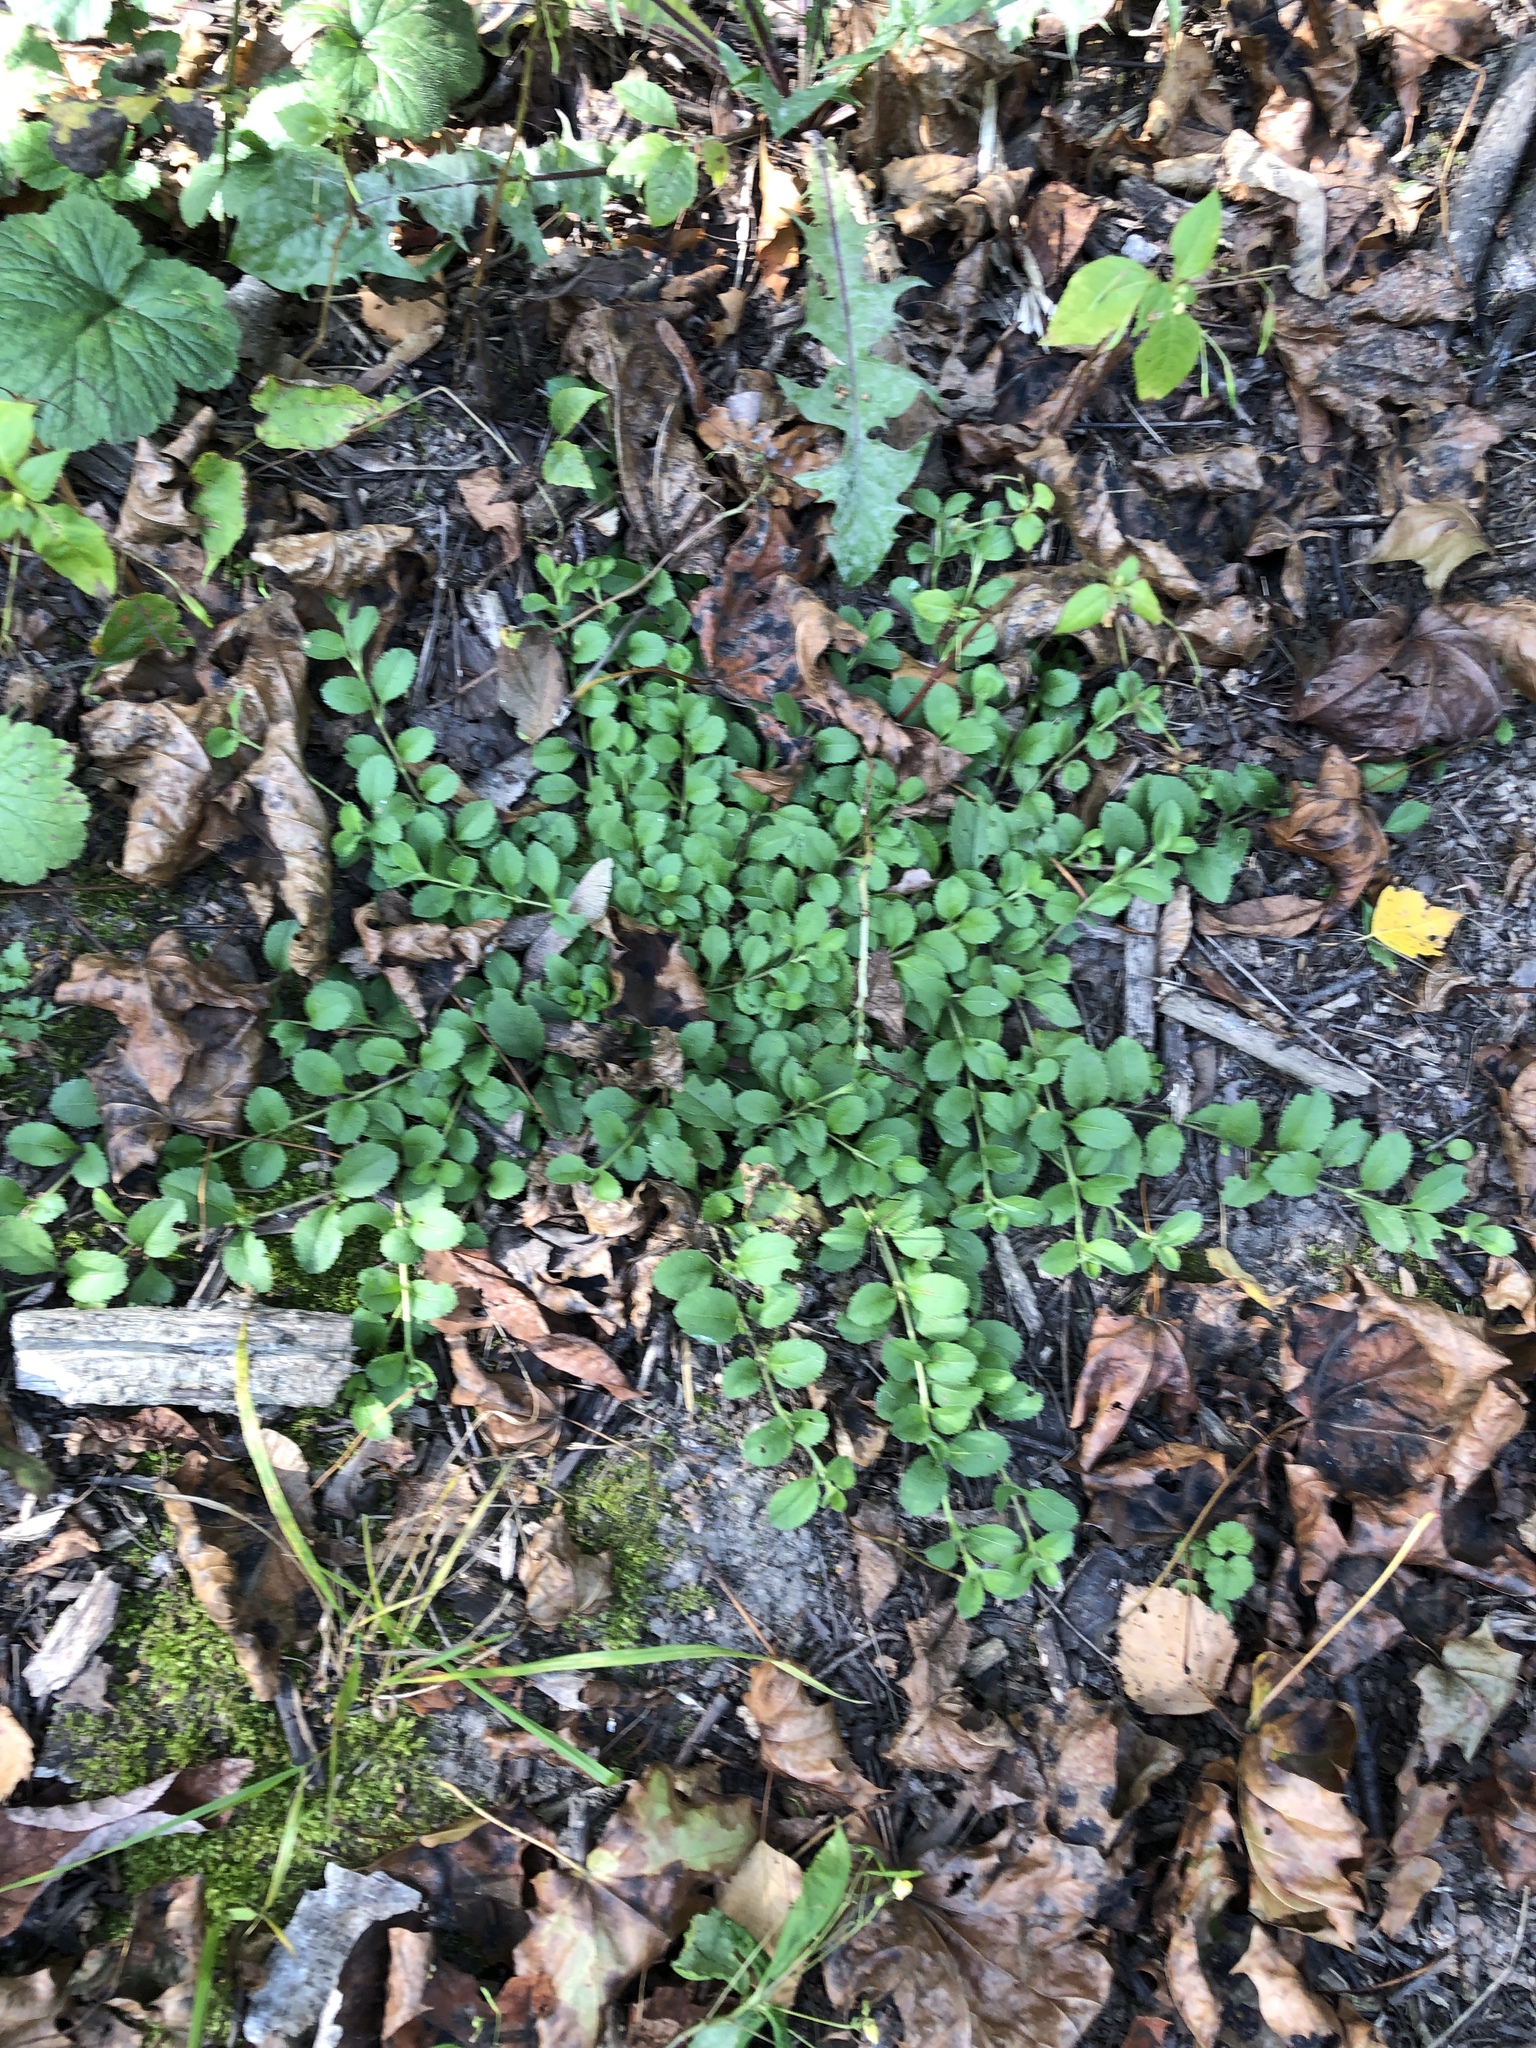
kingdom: Plantae
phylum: Tracheophyta
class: Magnoliopsida
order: Lamiales
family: Plantaginaceae
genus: Veronica
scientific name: Veronica officinalis
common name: Common speedwell
